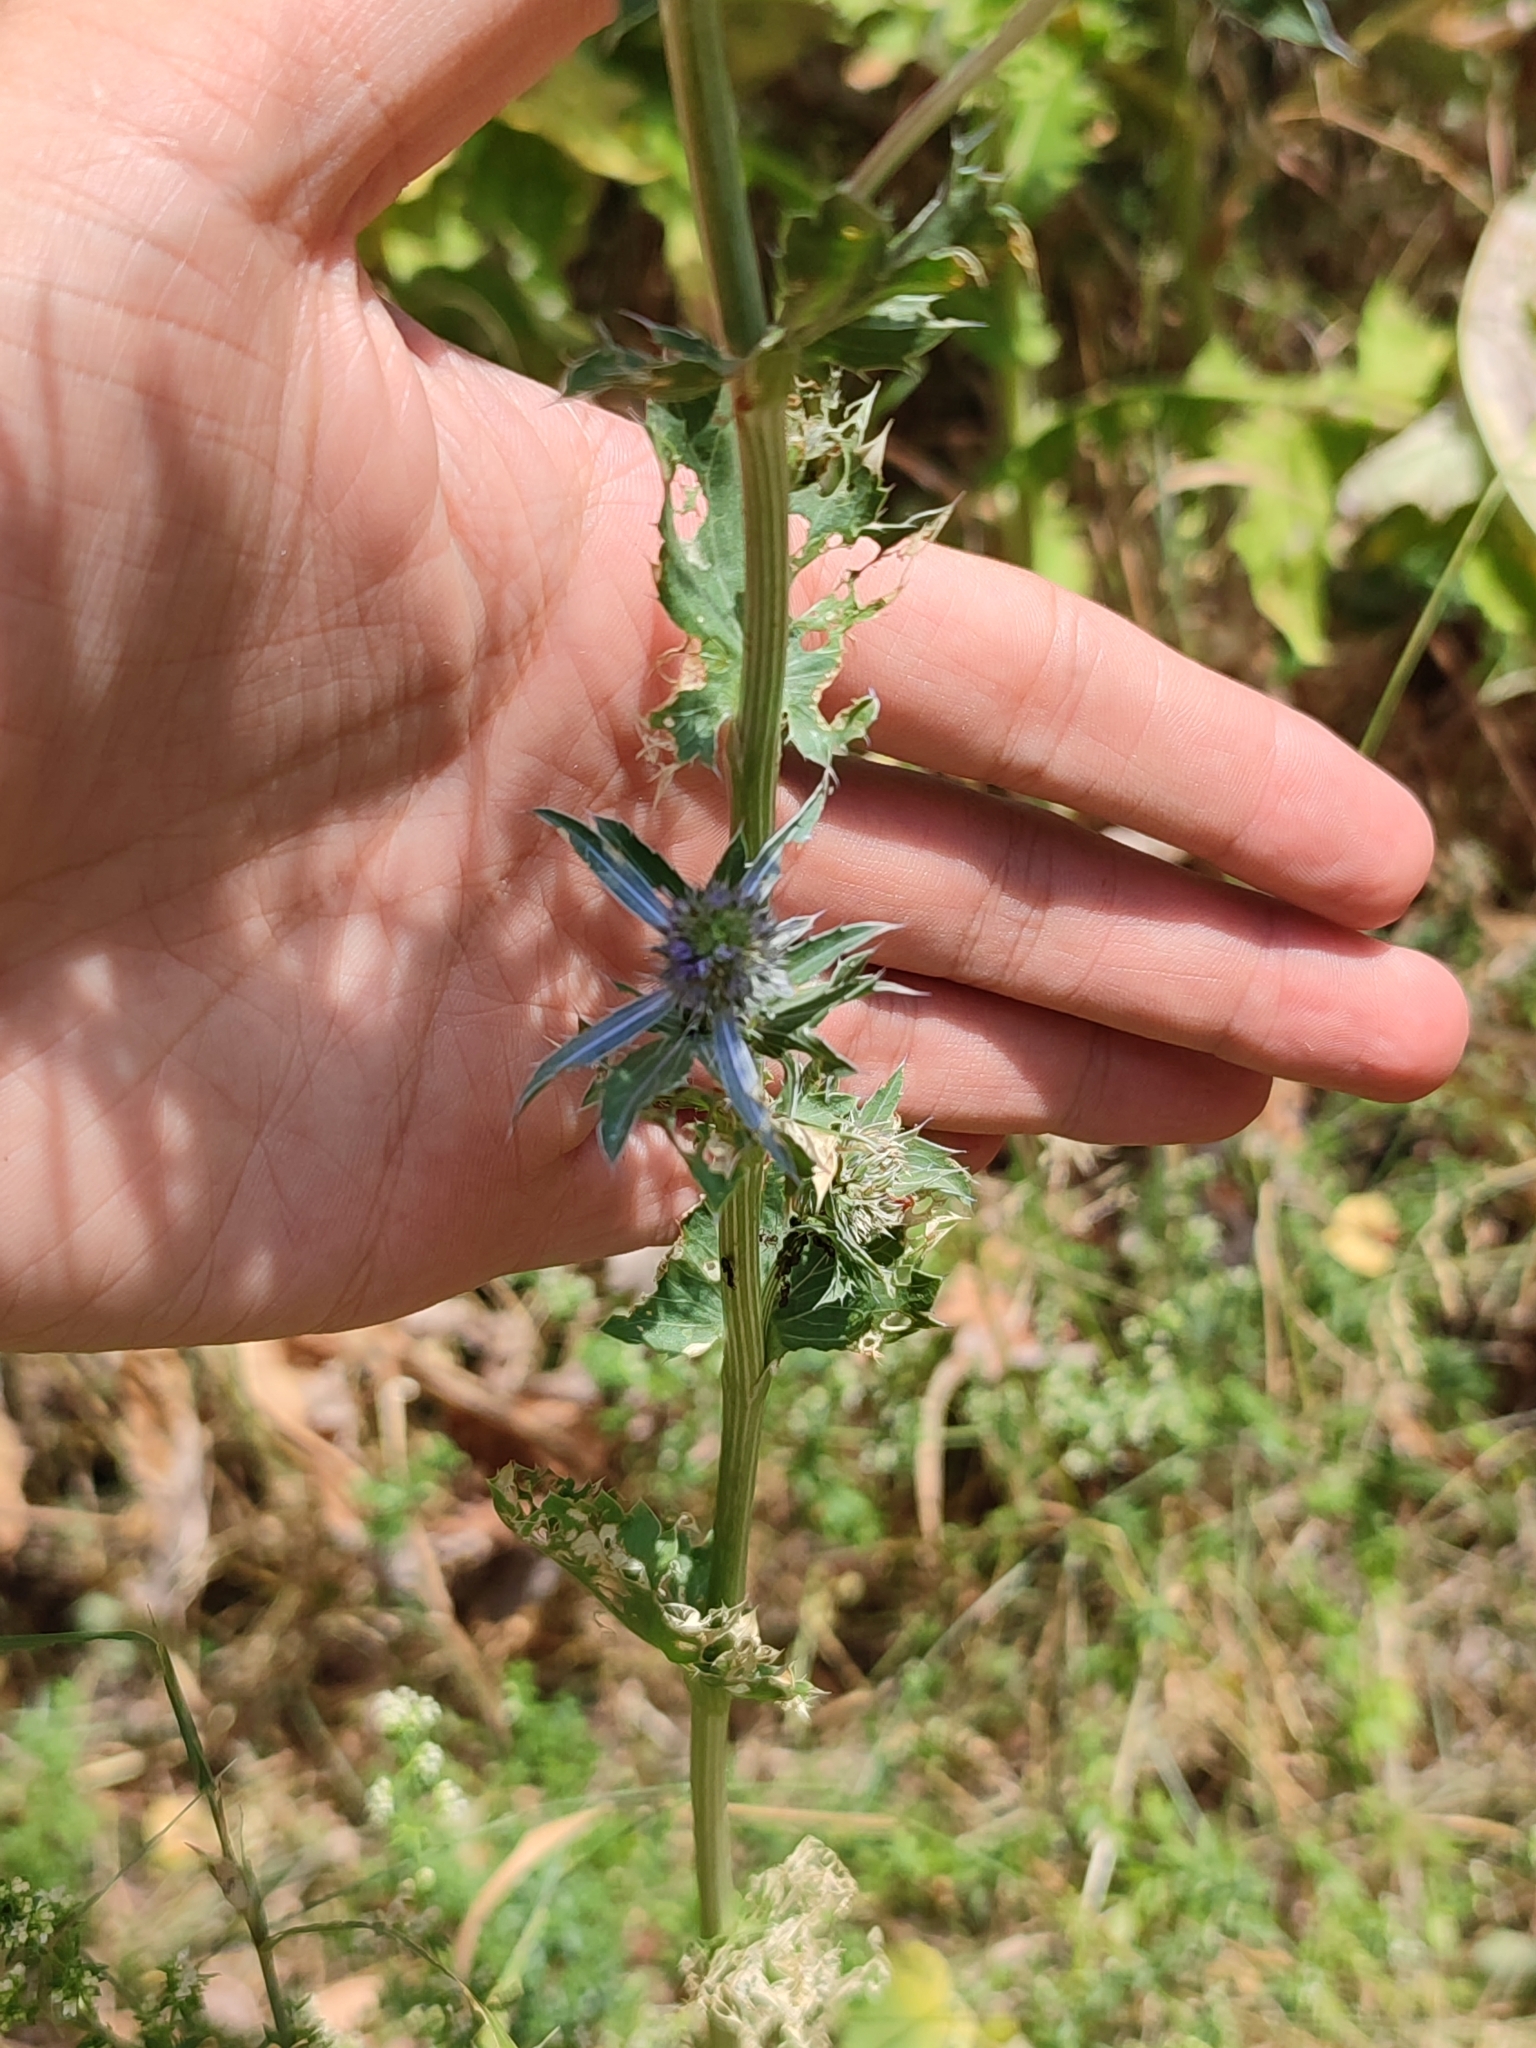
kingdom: Plantae
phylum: Tracheophyta
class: Magnoliopsida
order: Apiales
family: Apiaceae
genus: Eryngium
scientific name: Eryngium planum
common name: Blue eryngo
